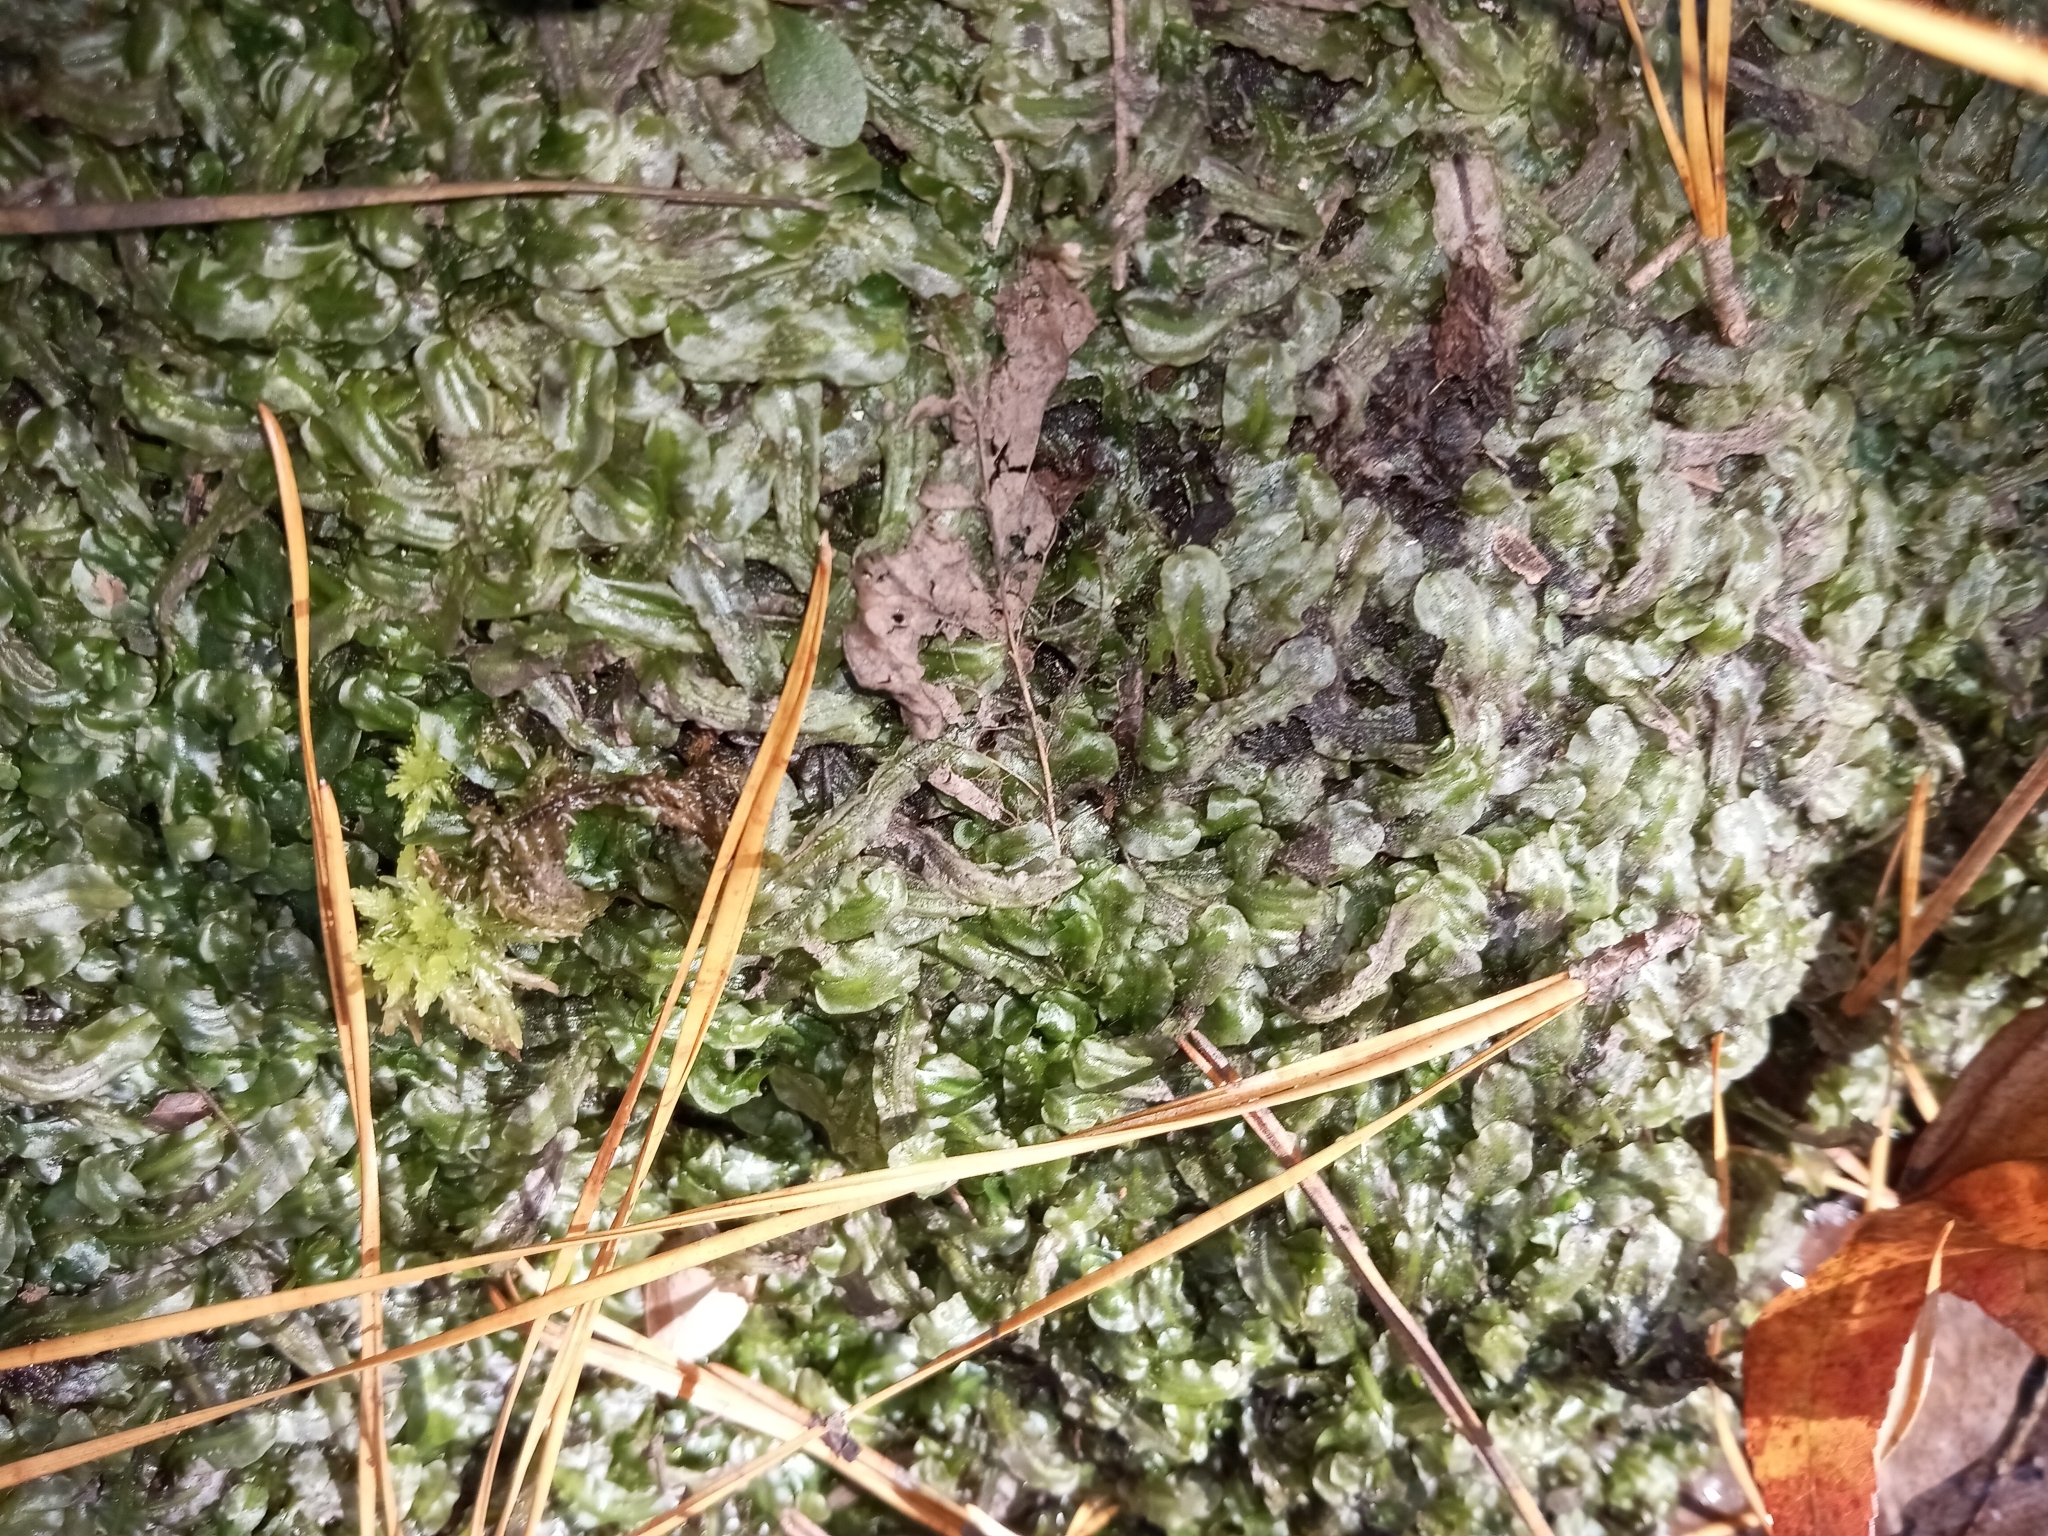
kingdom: Plantae
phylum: Marchantiophyta
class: Jungermanniopsida
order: Pallaviciniales
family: Pallaviciniaceae
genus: Pallavicinia
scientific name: Pallavicinia lyellii
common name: Veilwort
